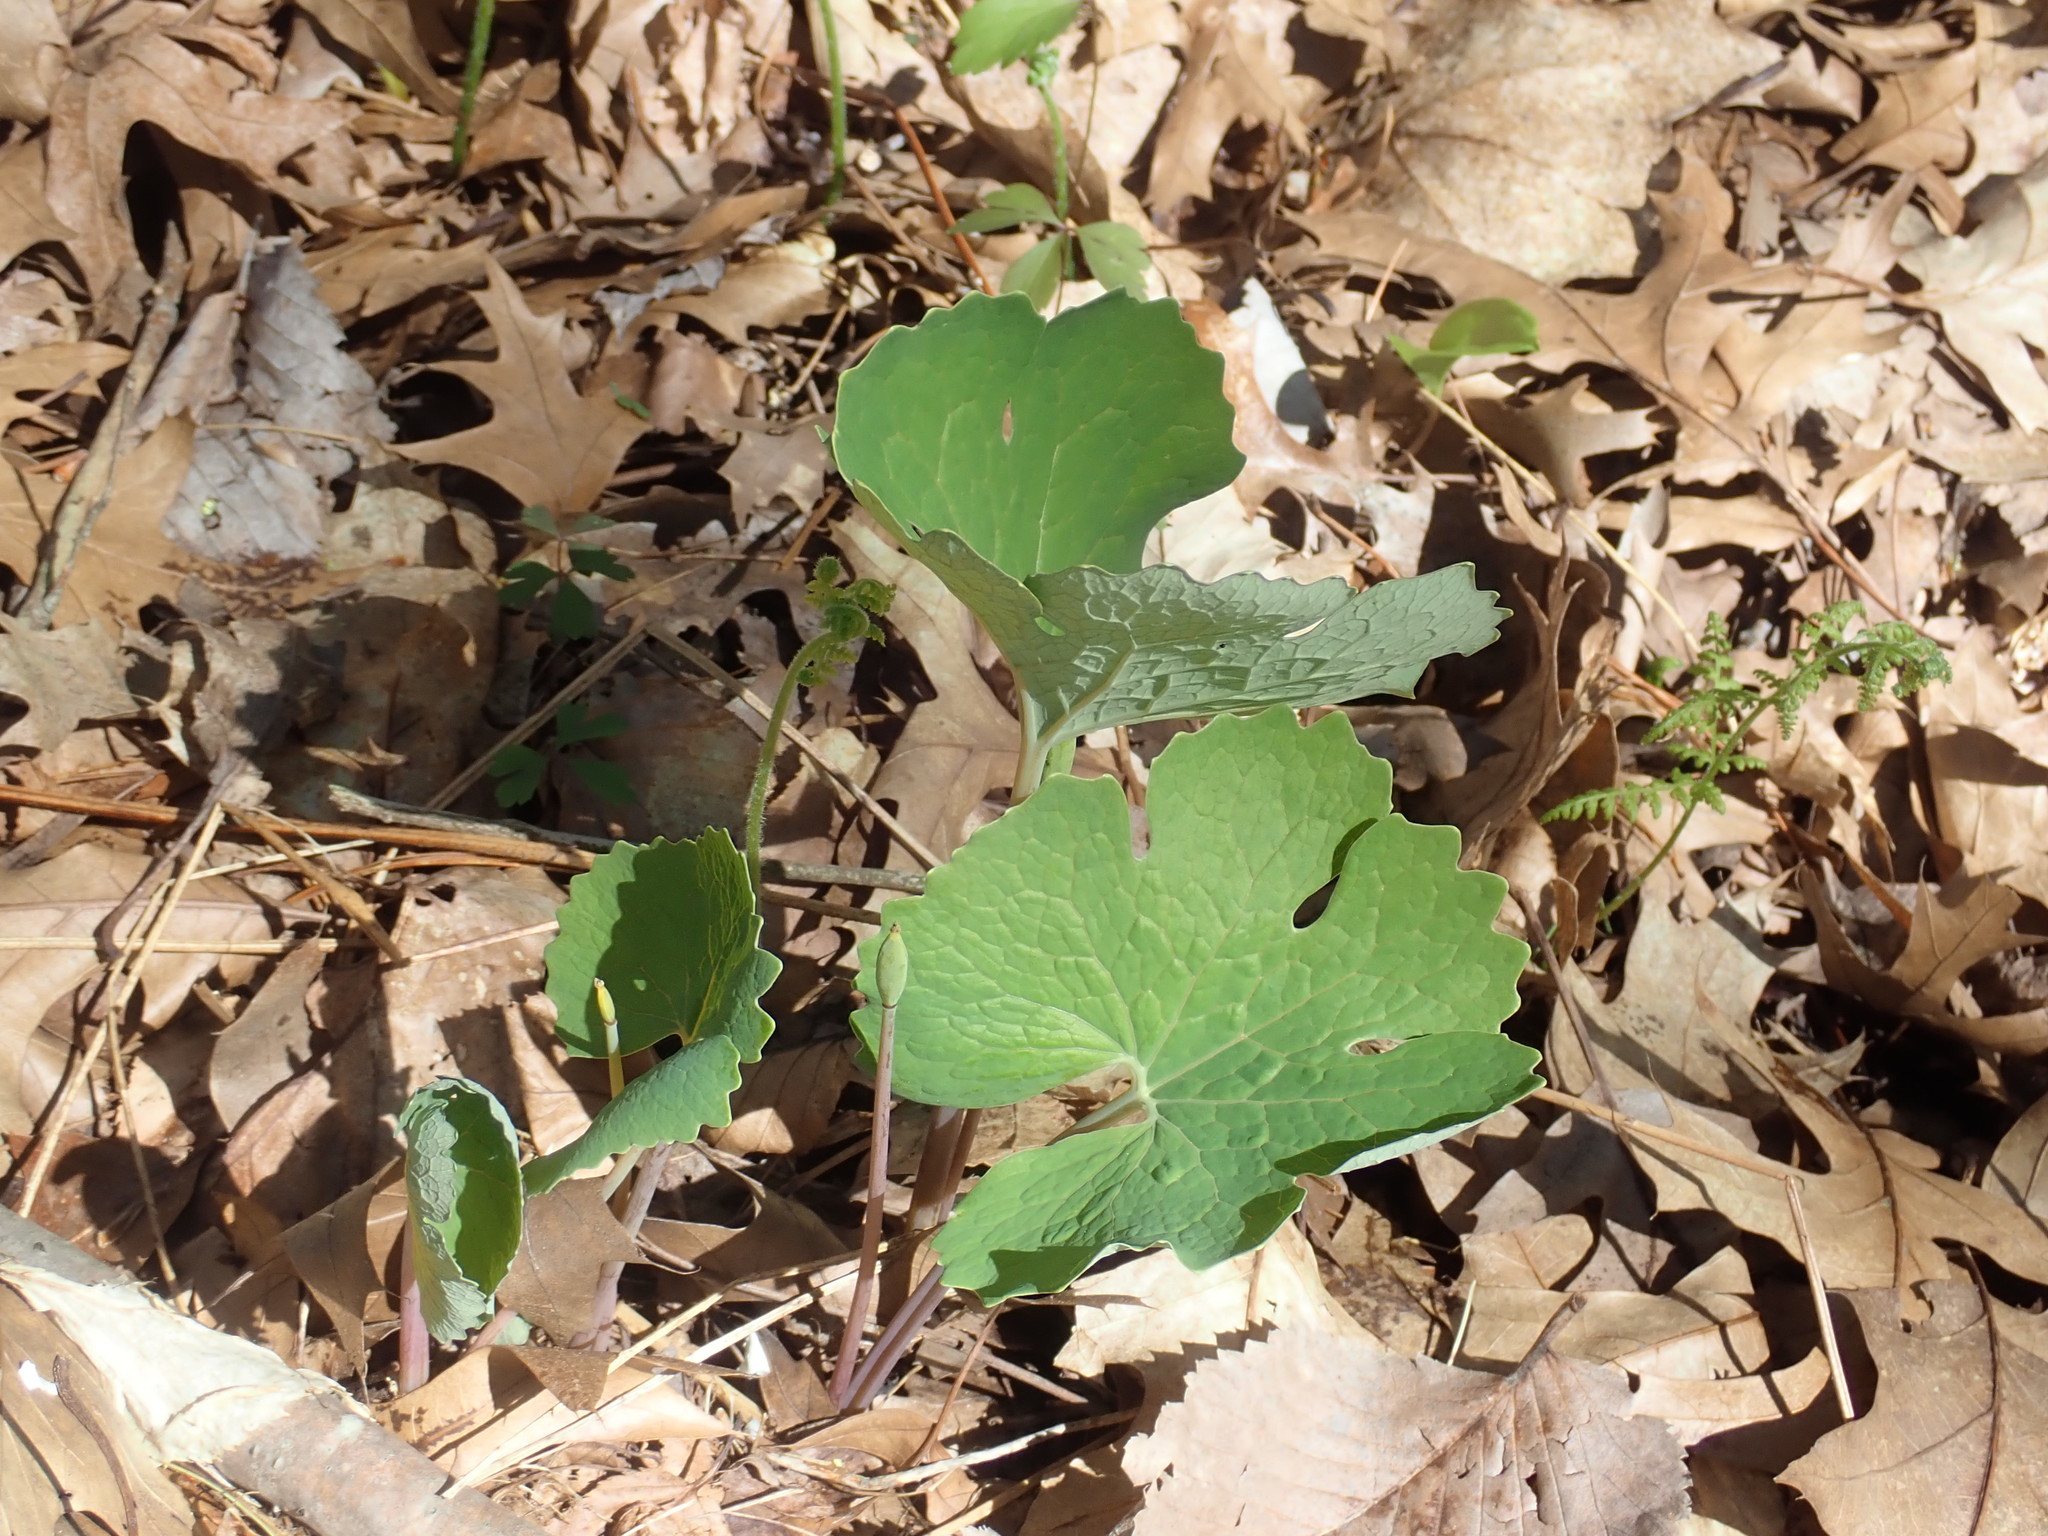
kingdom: Plantae
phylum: Tracheophyta
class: Magnoliopsida
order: Ranunculales
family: Papaveraceae
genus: Sanguinaria
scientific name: Sanguinaria canadensis
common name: Bloodroot
